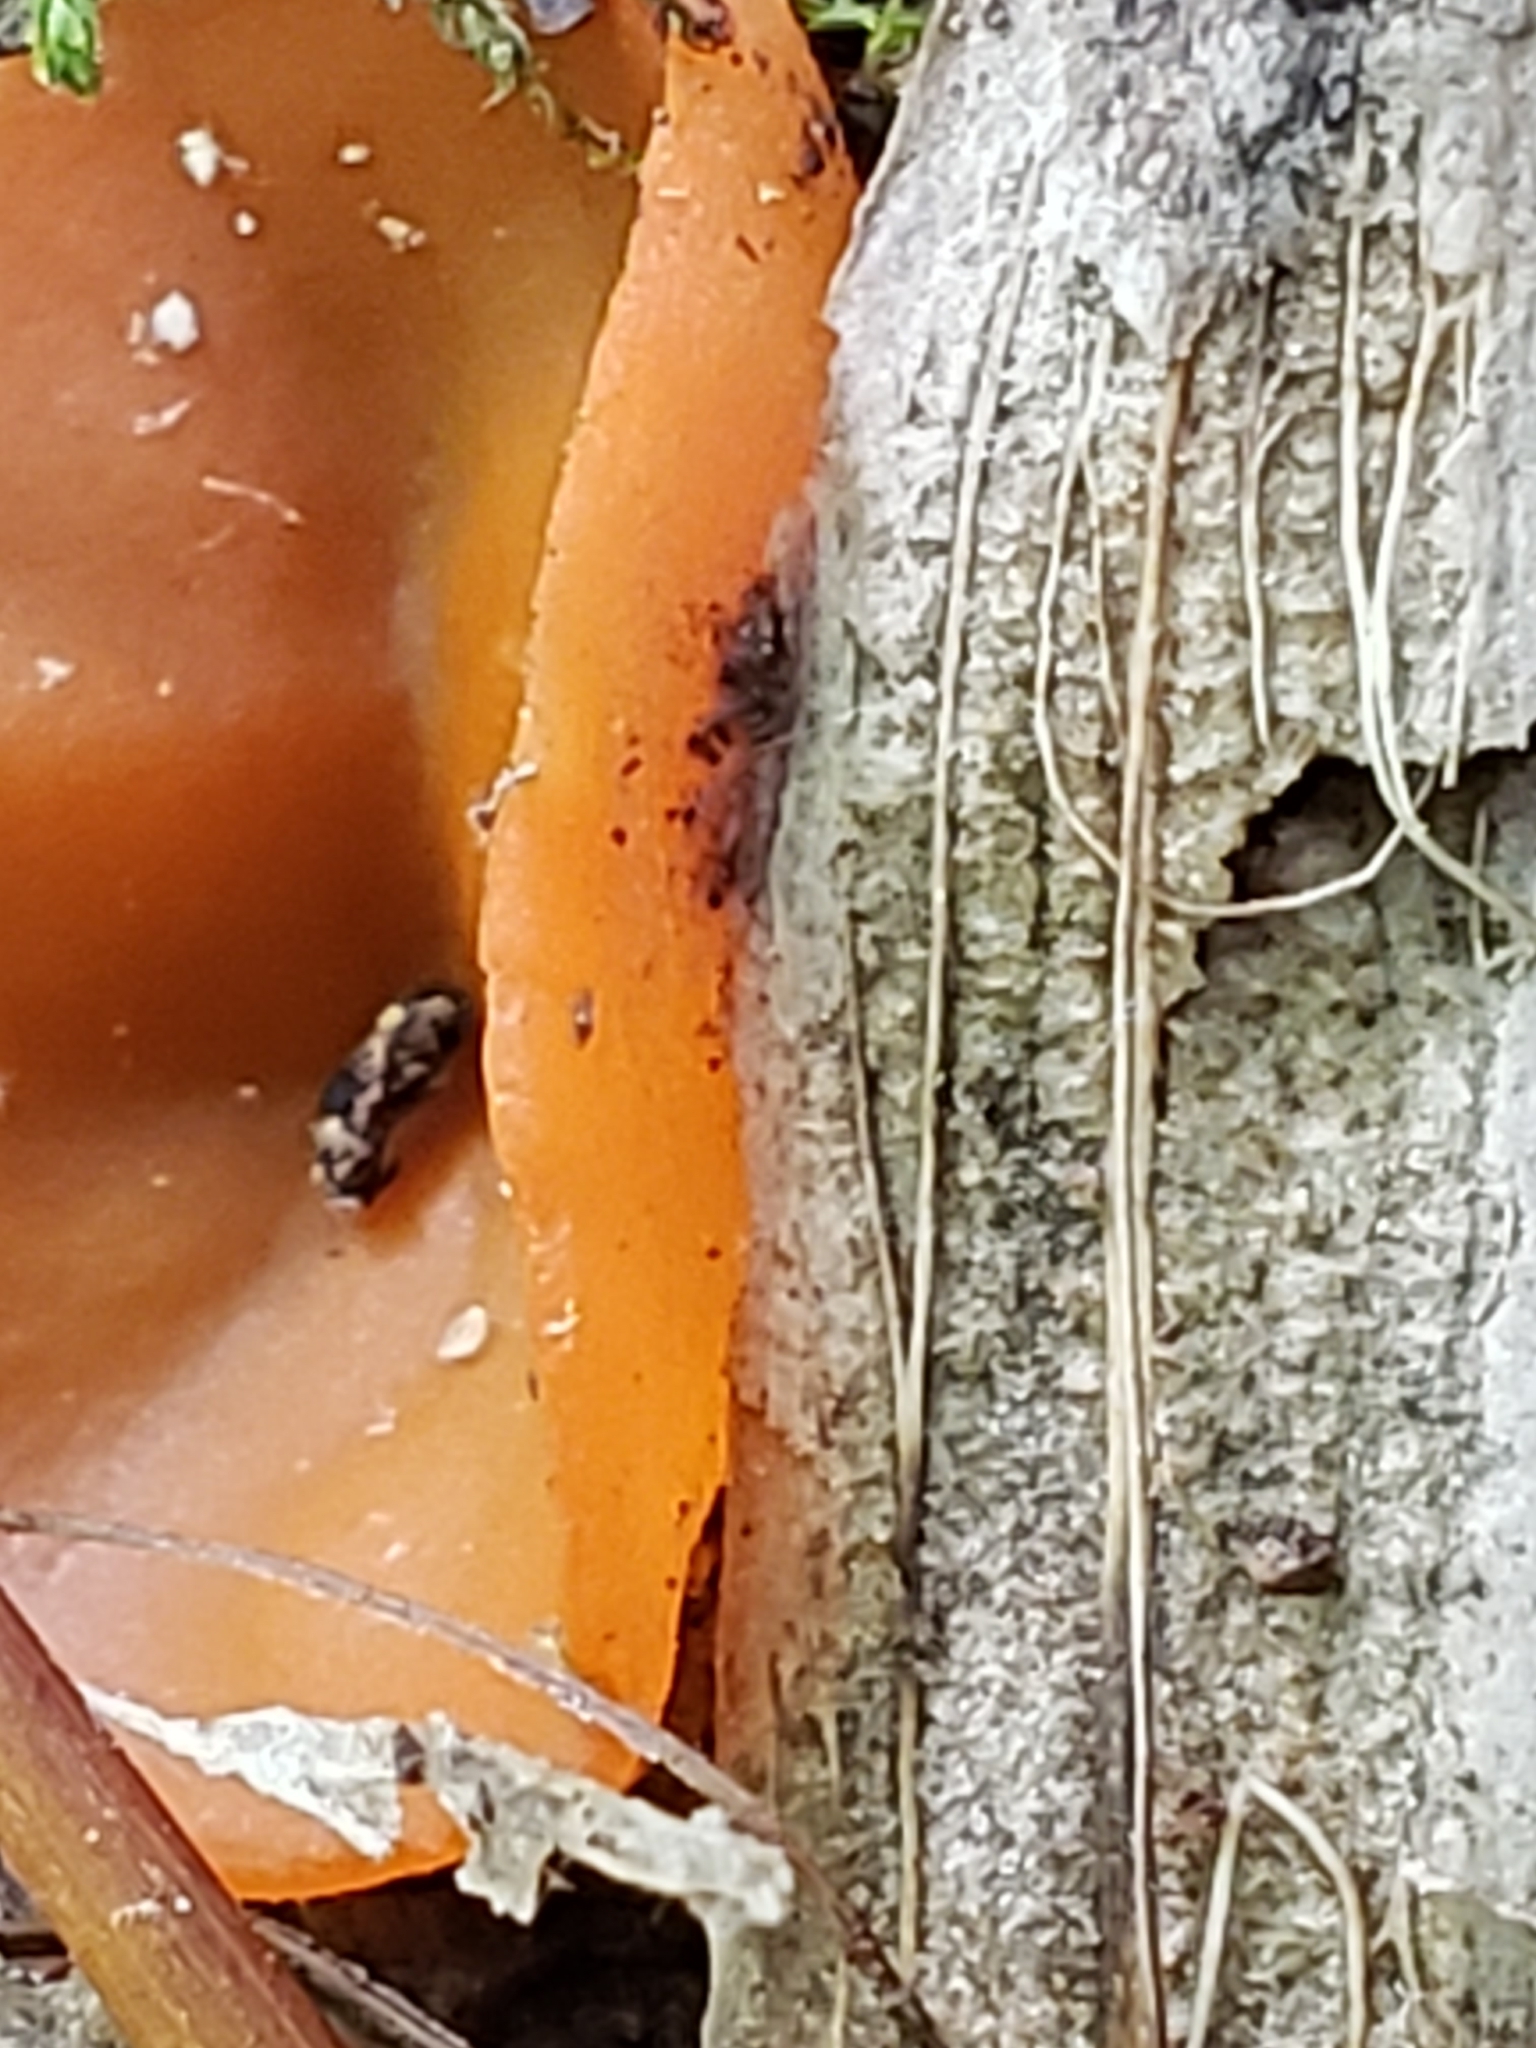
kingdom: Fungi
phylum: Ascomycota
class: Pezizomycetes
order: Pezizales
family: Pyronemataceae
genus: Aleuria
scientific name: Aleuria aurantia
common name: Orange peel fungus
